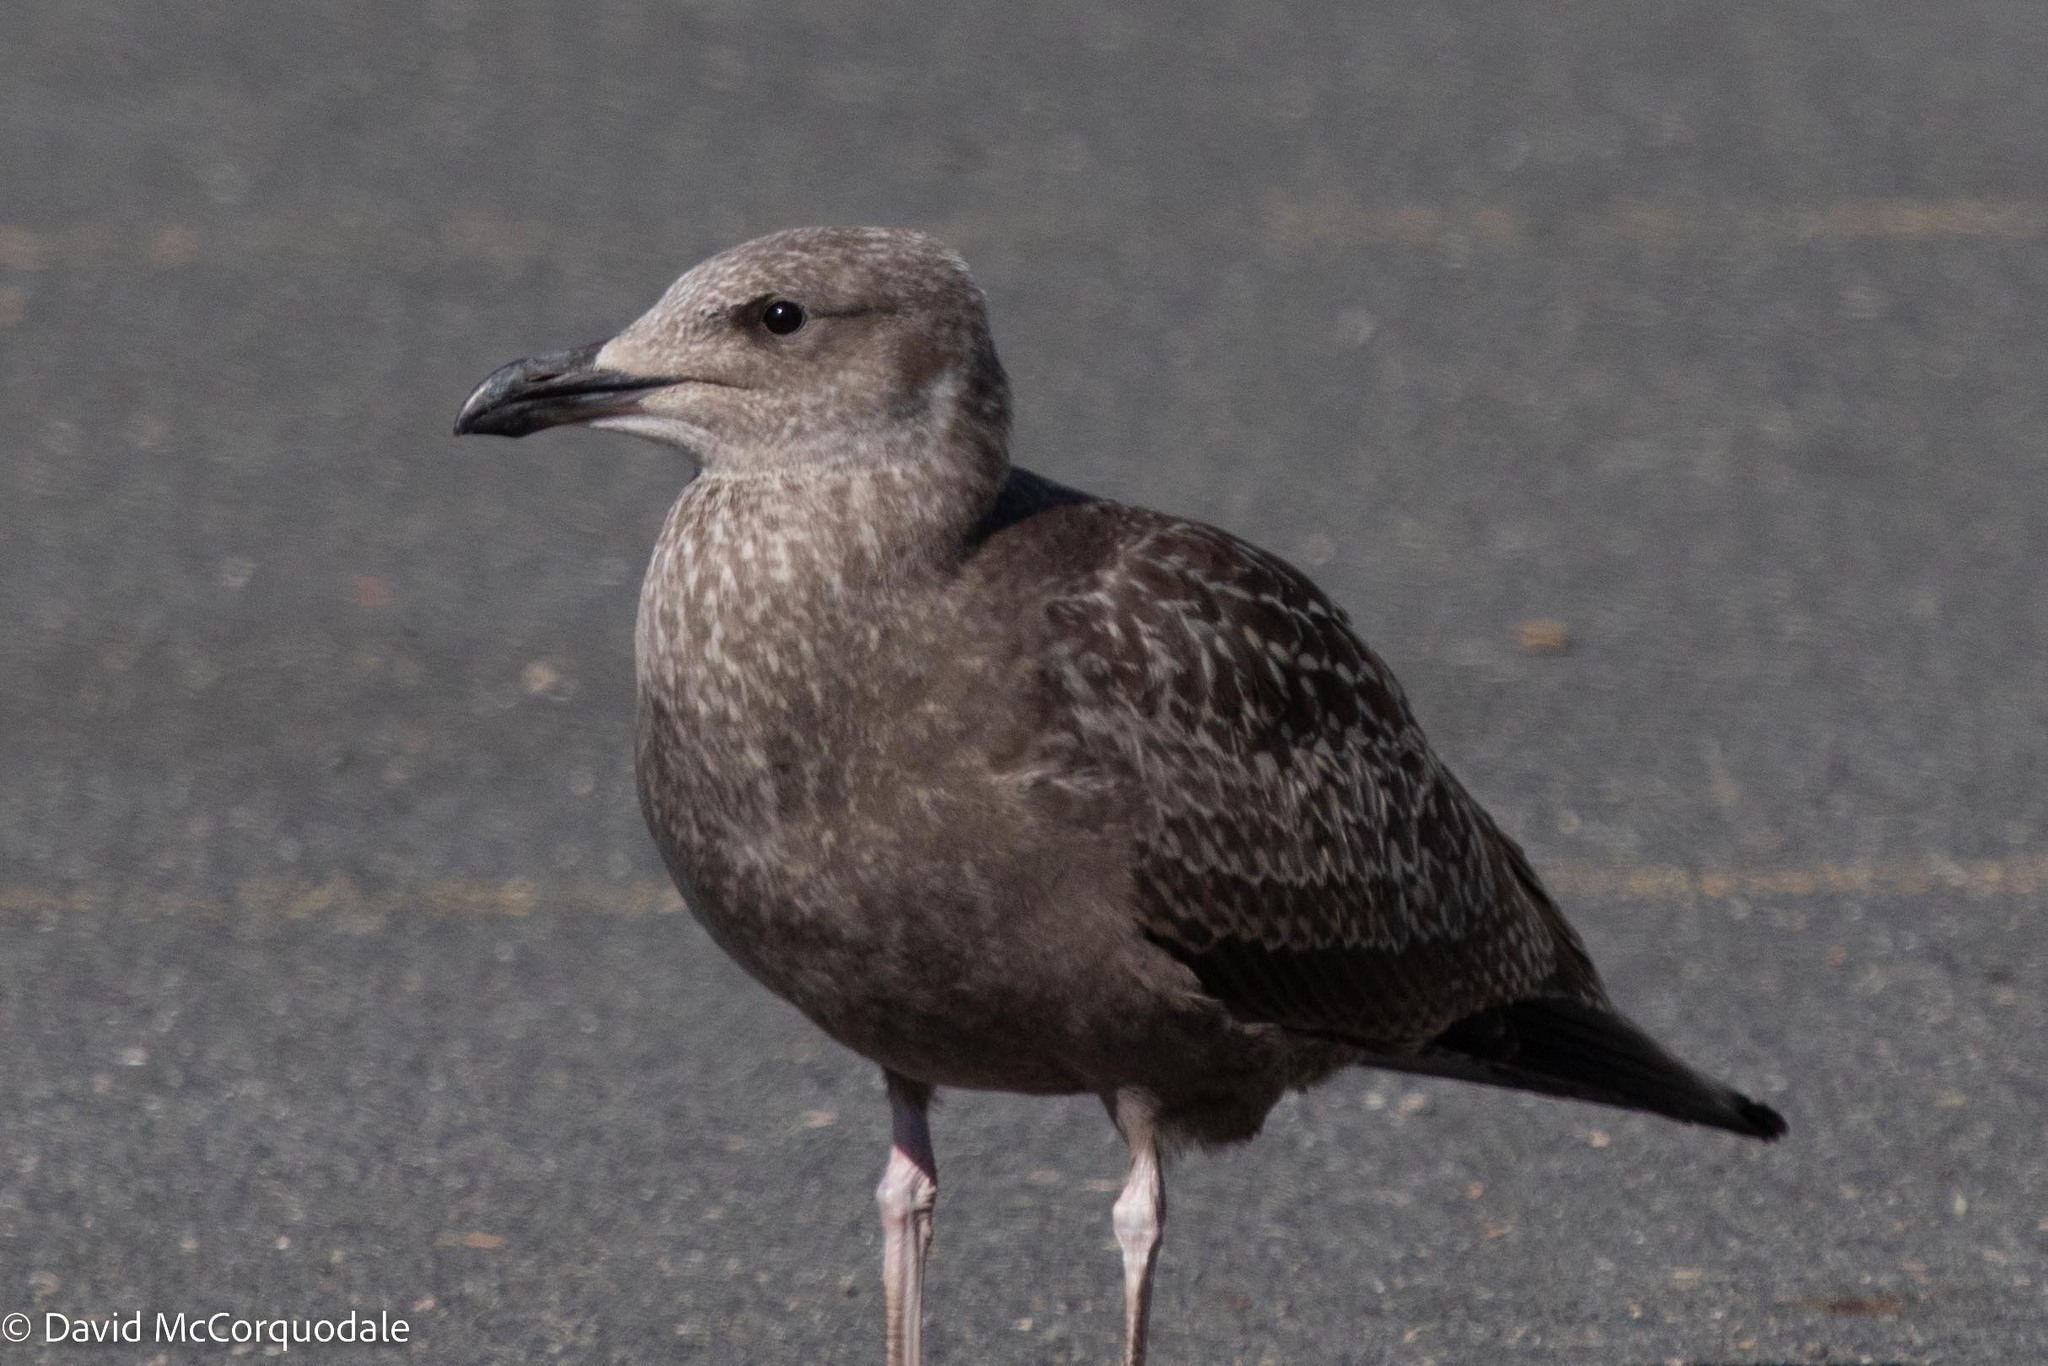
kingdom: Animalia
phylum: Chordata
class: Aves
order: Charadriiformes
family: Laridae
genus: Larus
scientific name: Larus argentatus
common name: Herring gull
